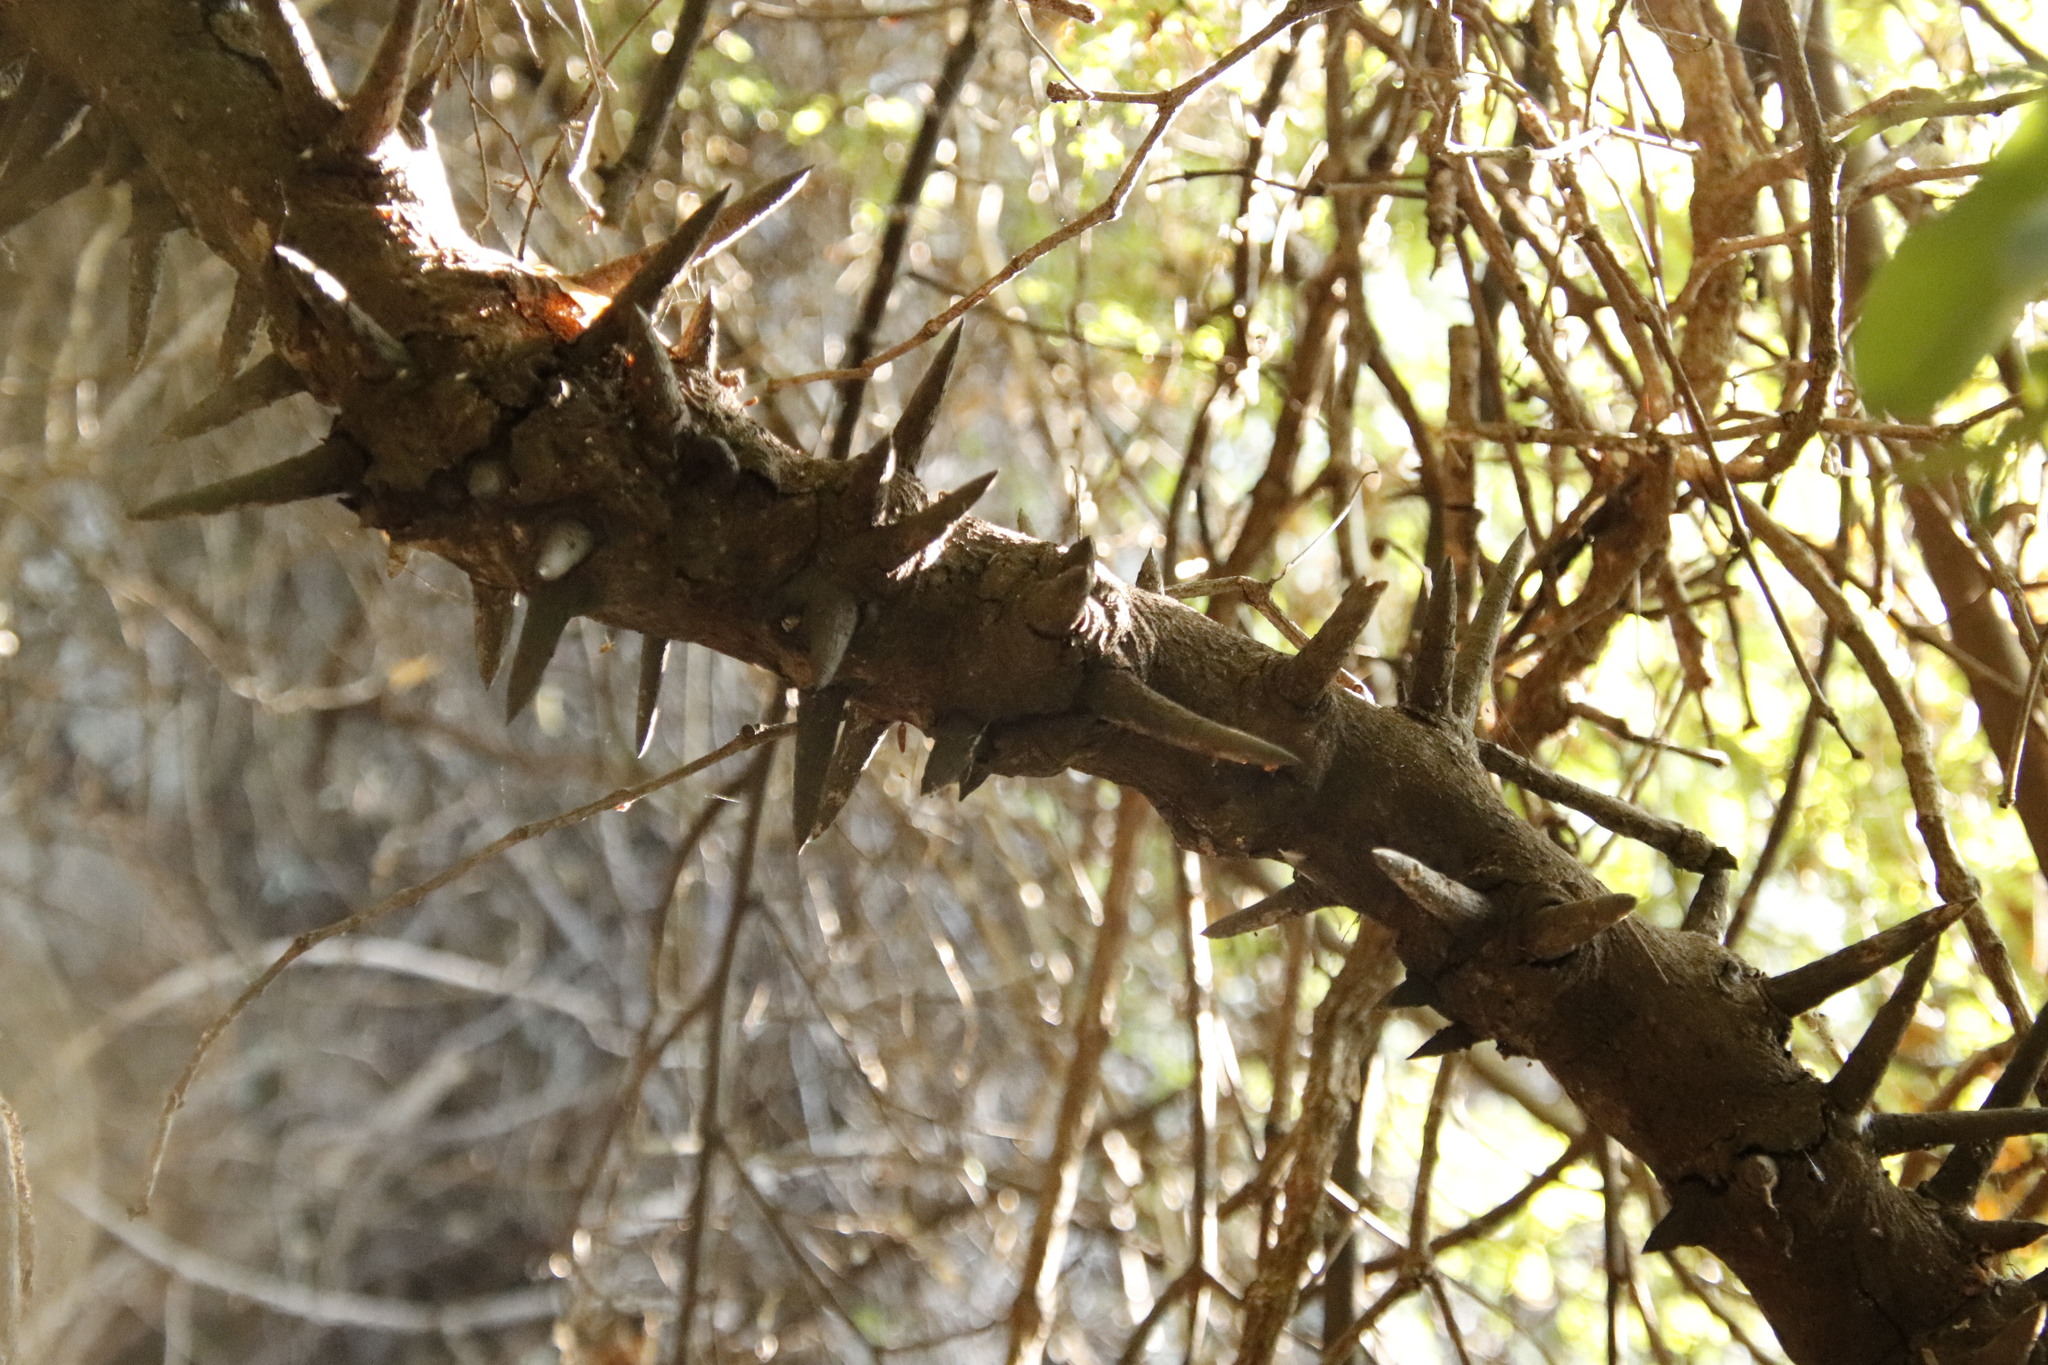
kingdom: Plantae
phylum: Tracheophyta
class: Magnoliopsida
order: Fabales
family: Fabaceae
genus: Dalbergia
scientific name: Dalbergia armata
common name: Hluhluwe climber
